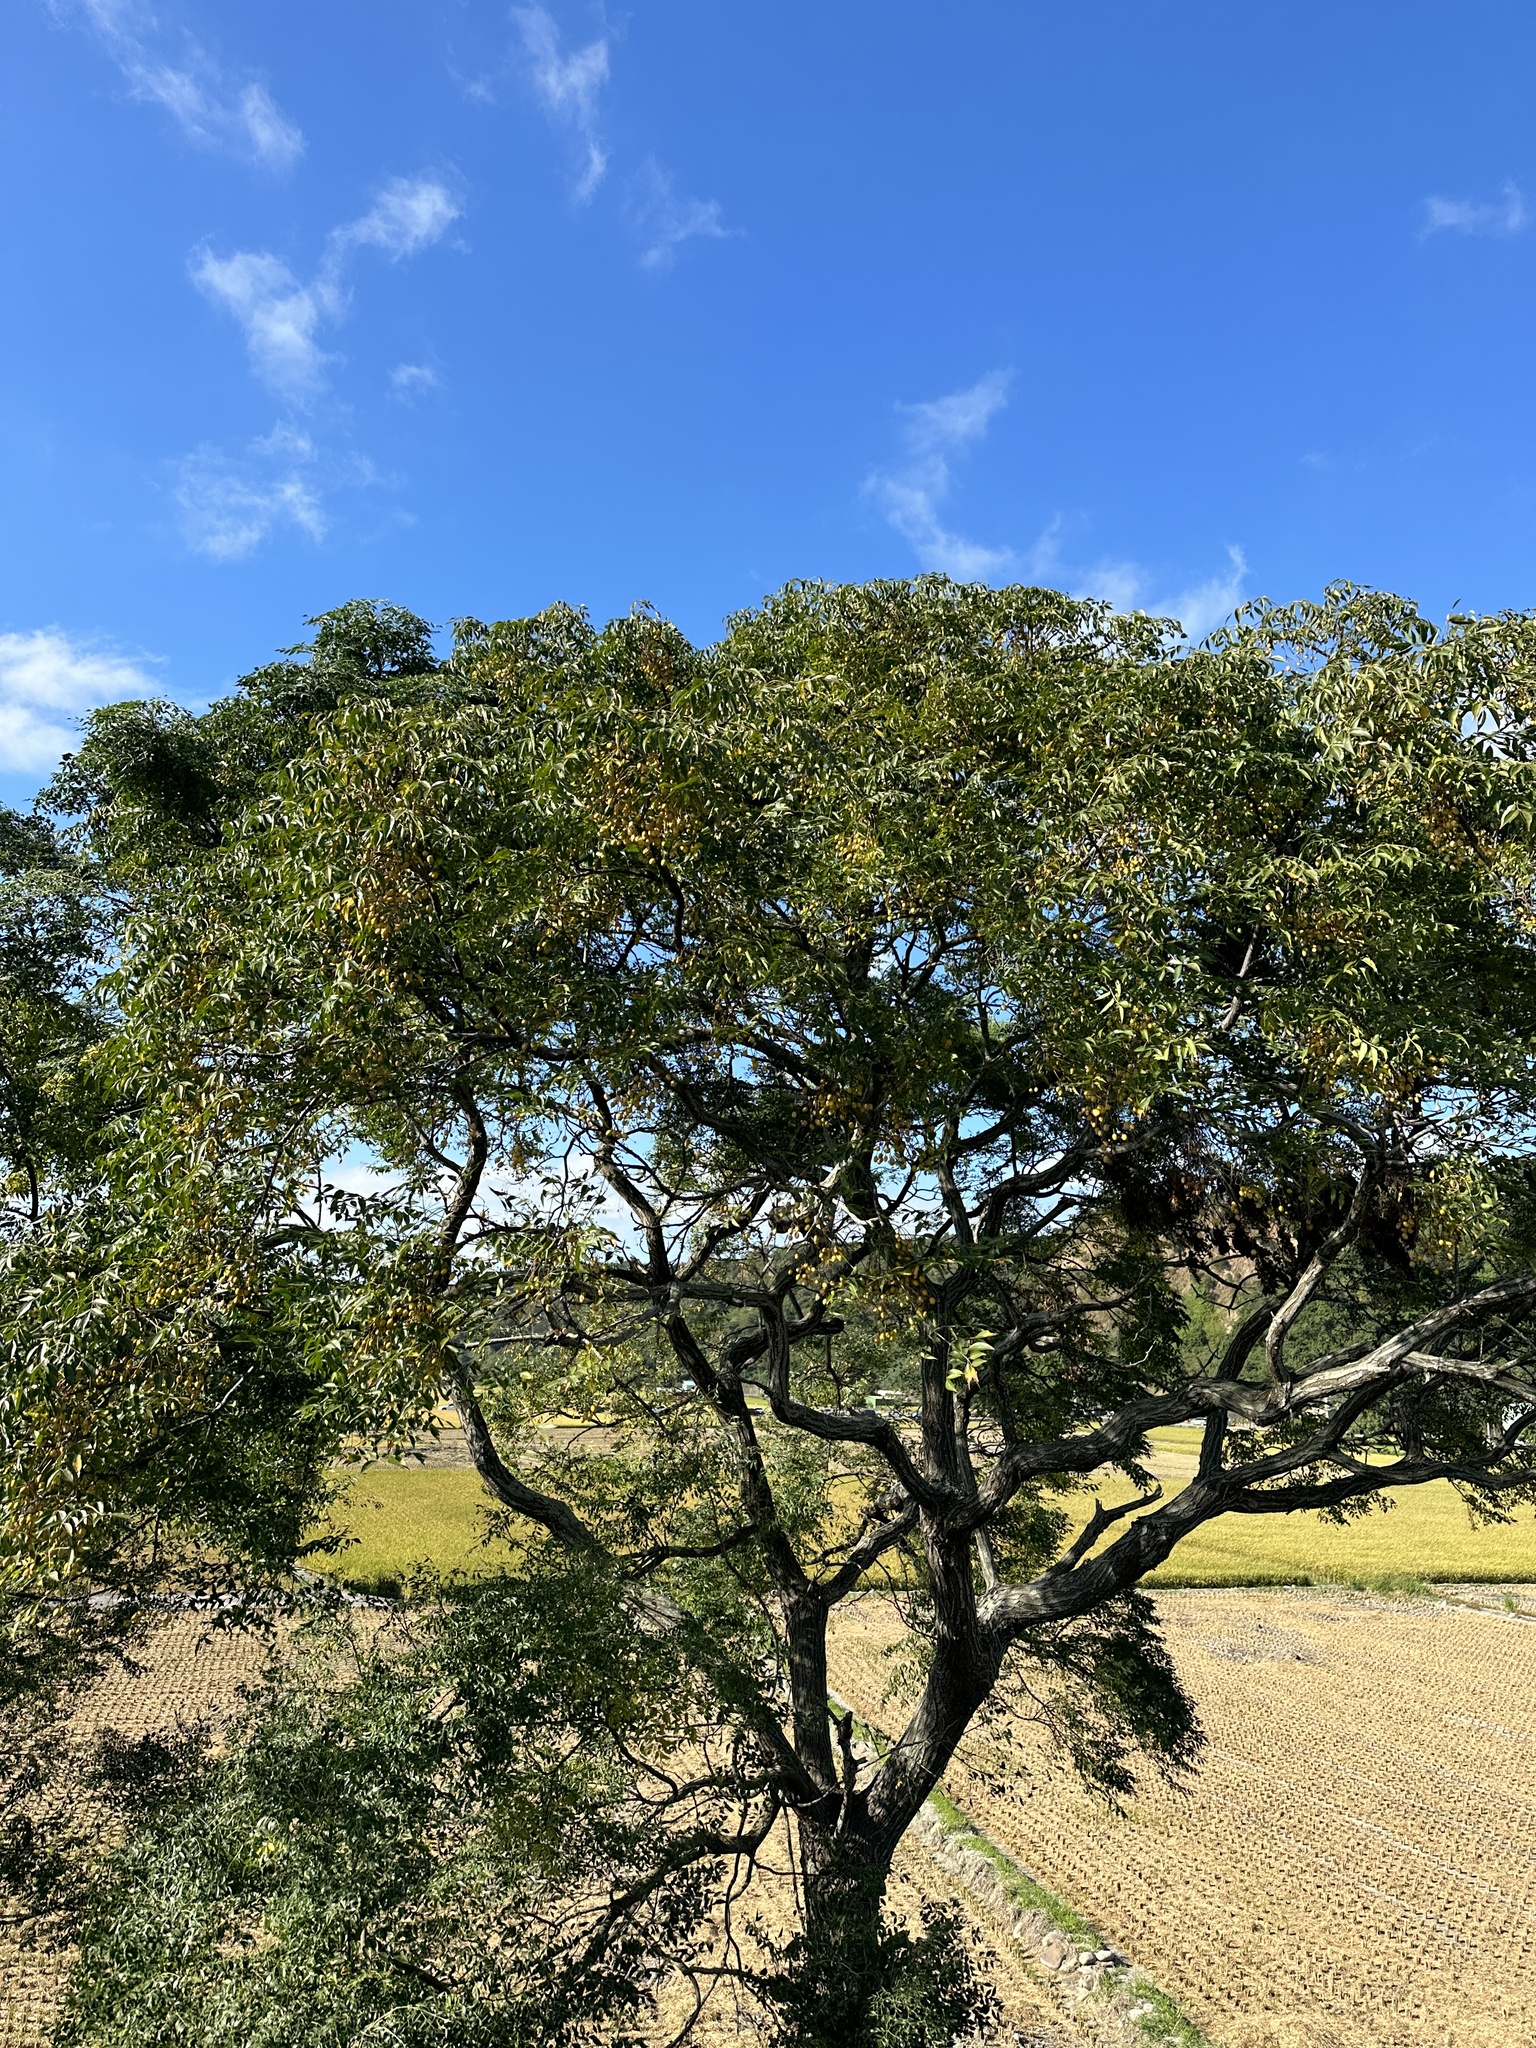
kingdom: Plantae
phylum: Tracheophyta
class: Magnoliopsida
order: Sapindales
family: Meliaceae
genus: Melia
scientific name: Melia azedarach
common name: Chinaberrytree
